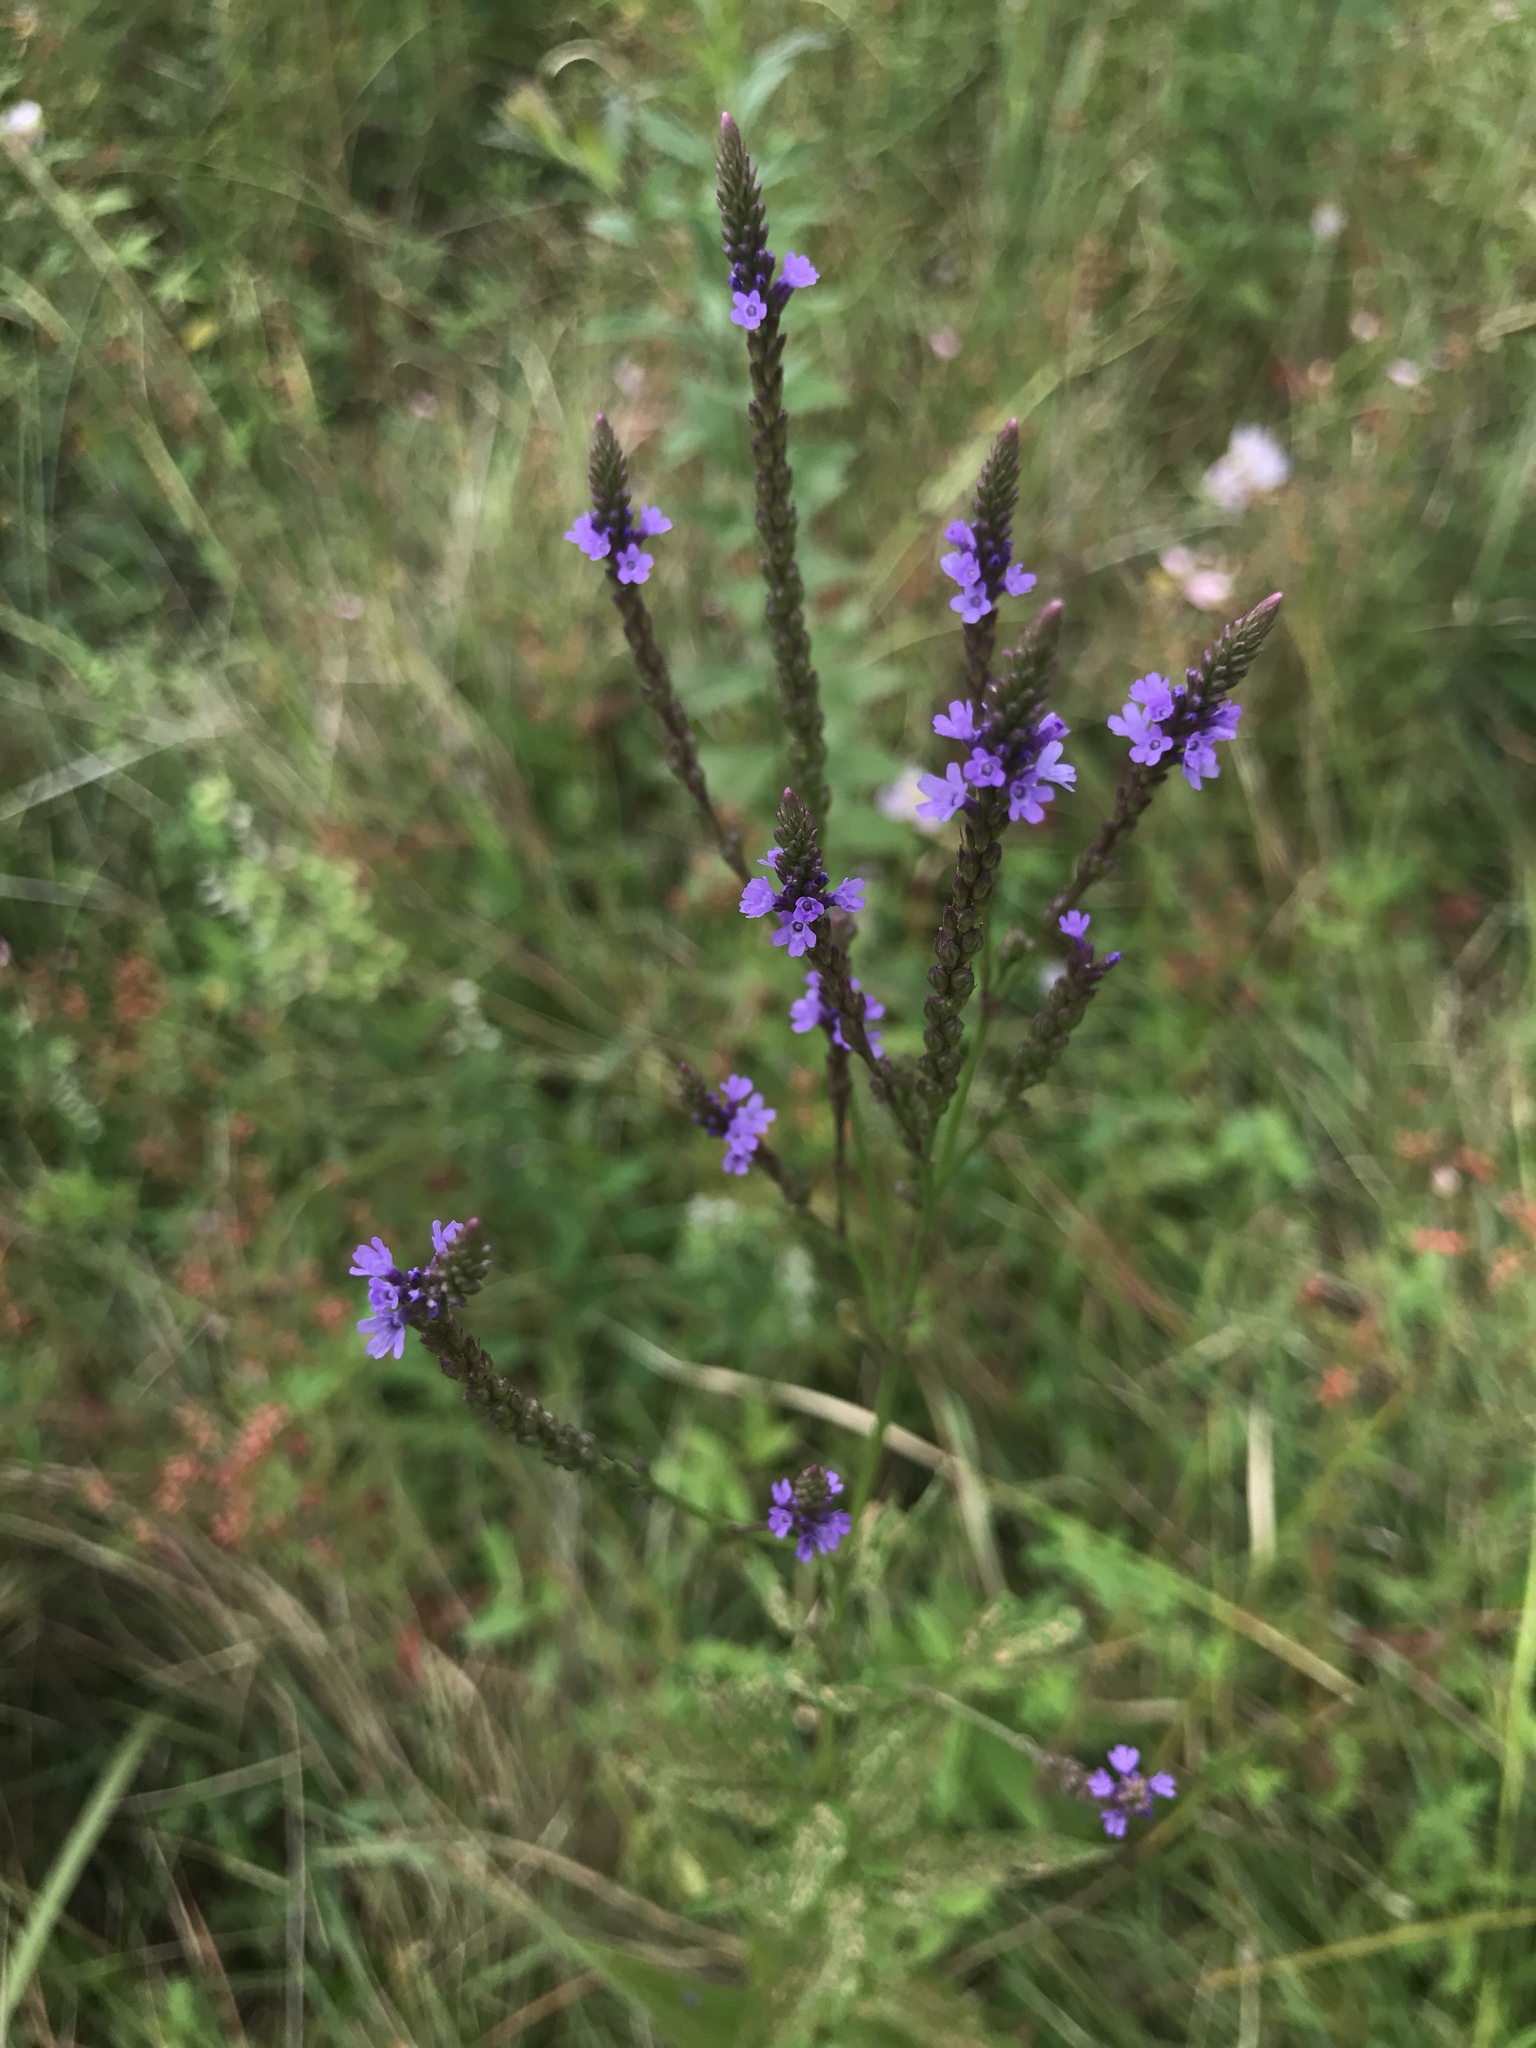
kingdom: Plantae
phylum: Tracheophyta
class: Magnoliopsida
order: Lamiales
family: Verbenaceae
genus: Verbena
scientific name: Verbena hastata
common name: American blue vervain
